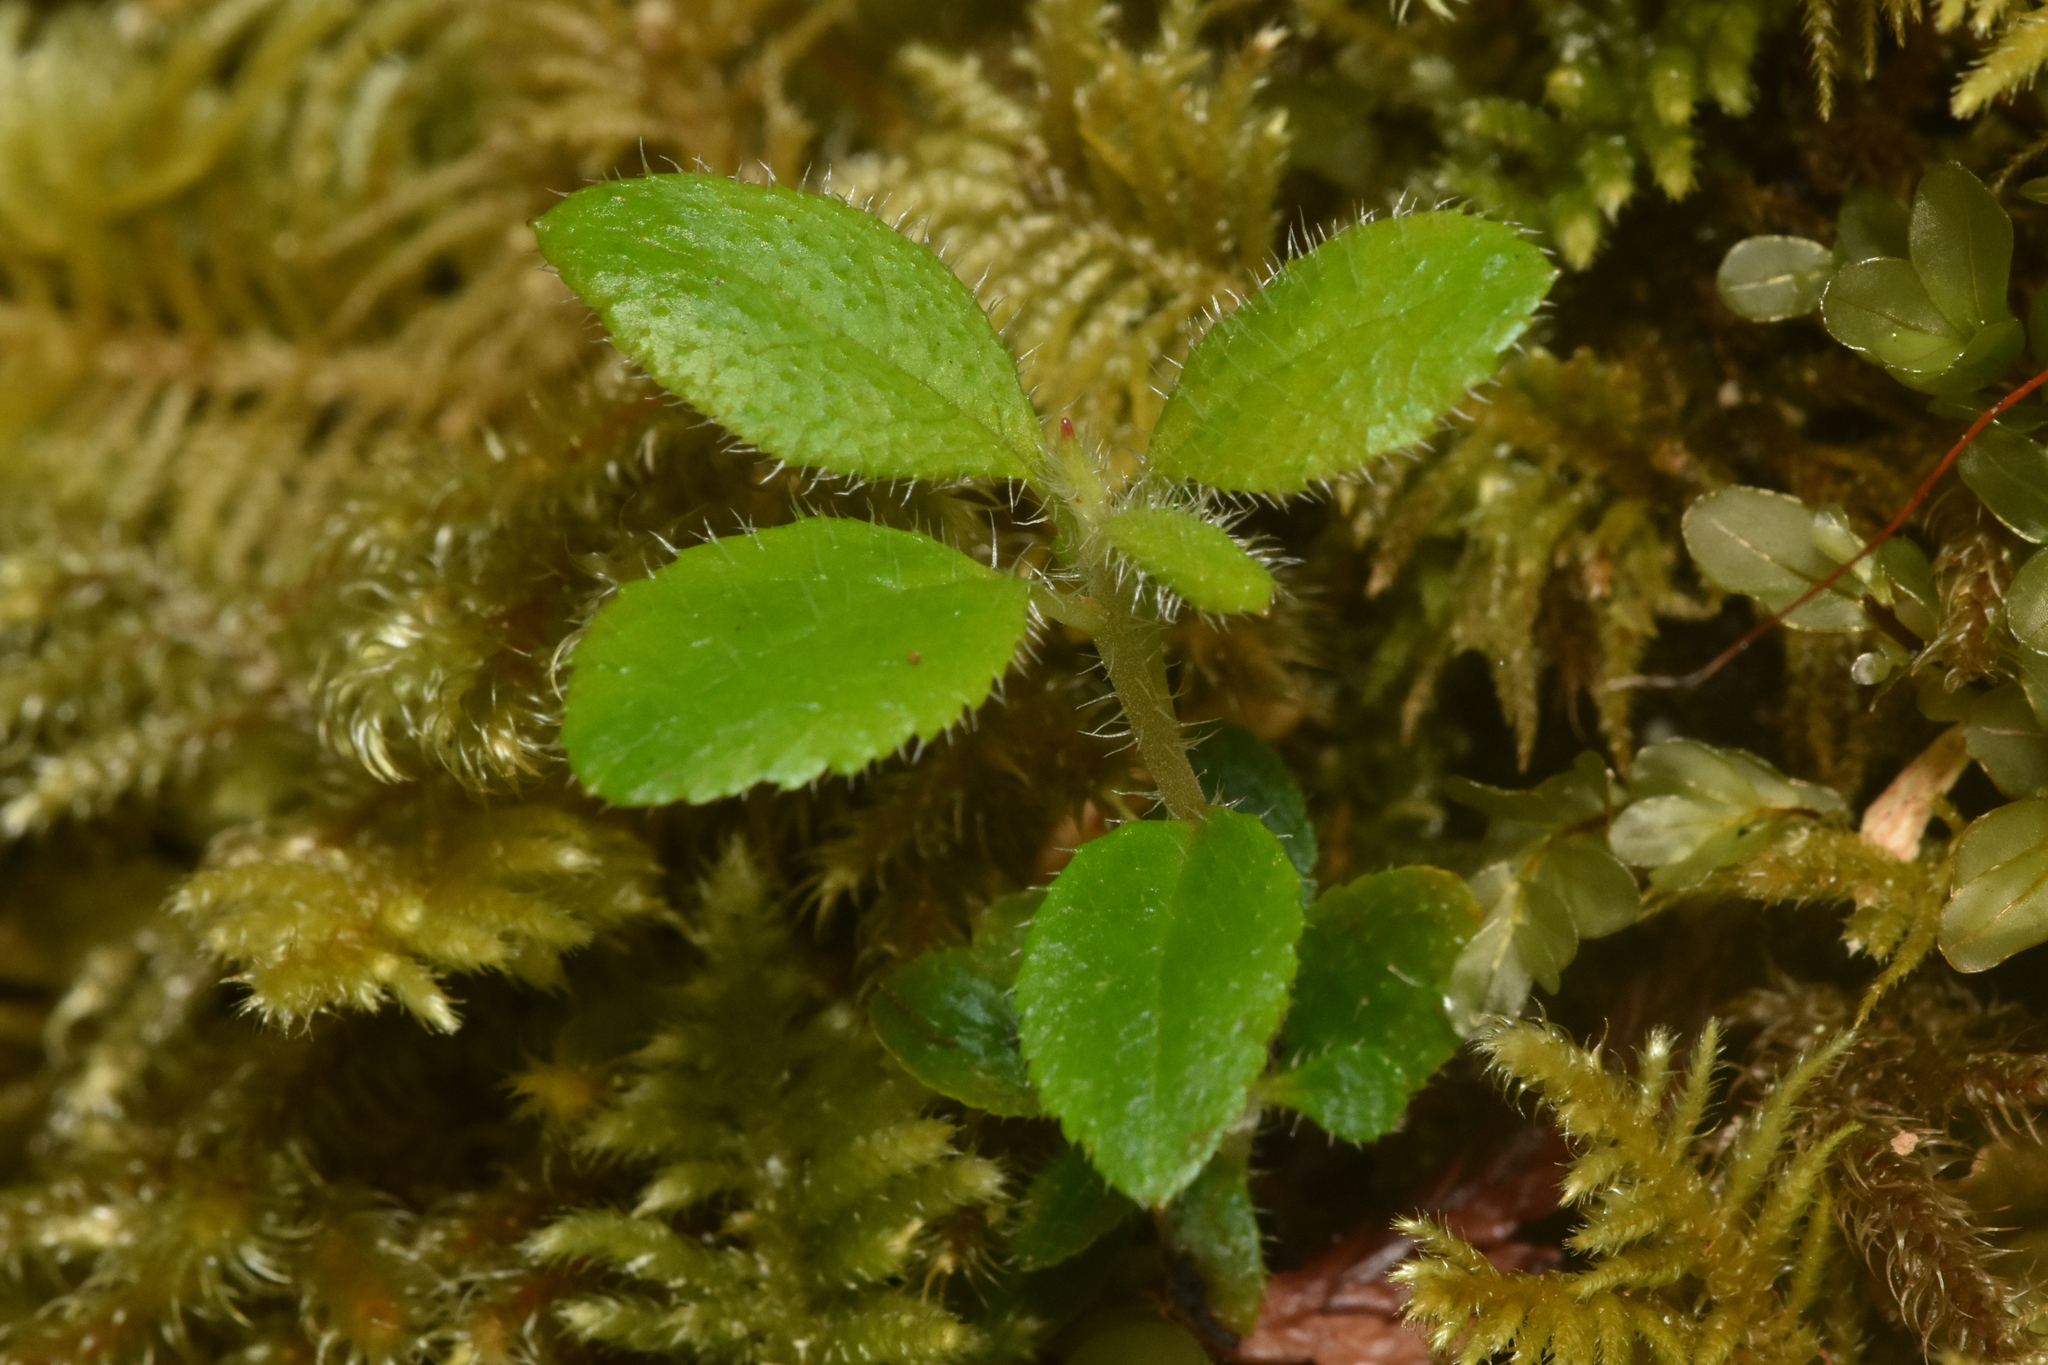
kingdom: Plantae
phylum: Tracheophyta
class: Magnoliopsida
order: Dipsacales
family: Caprifoliaceae
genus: Linnaea
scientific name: Linnaea borealis
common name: Twinflower
